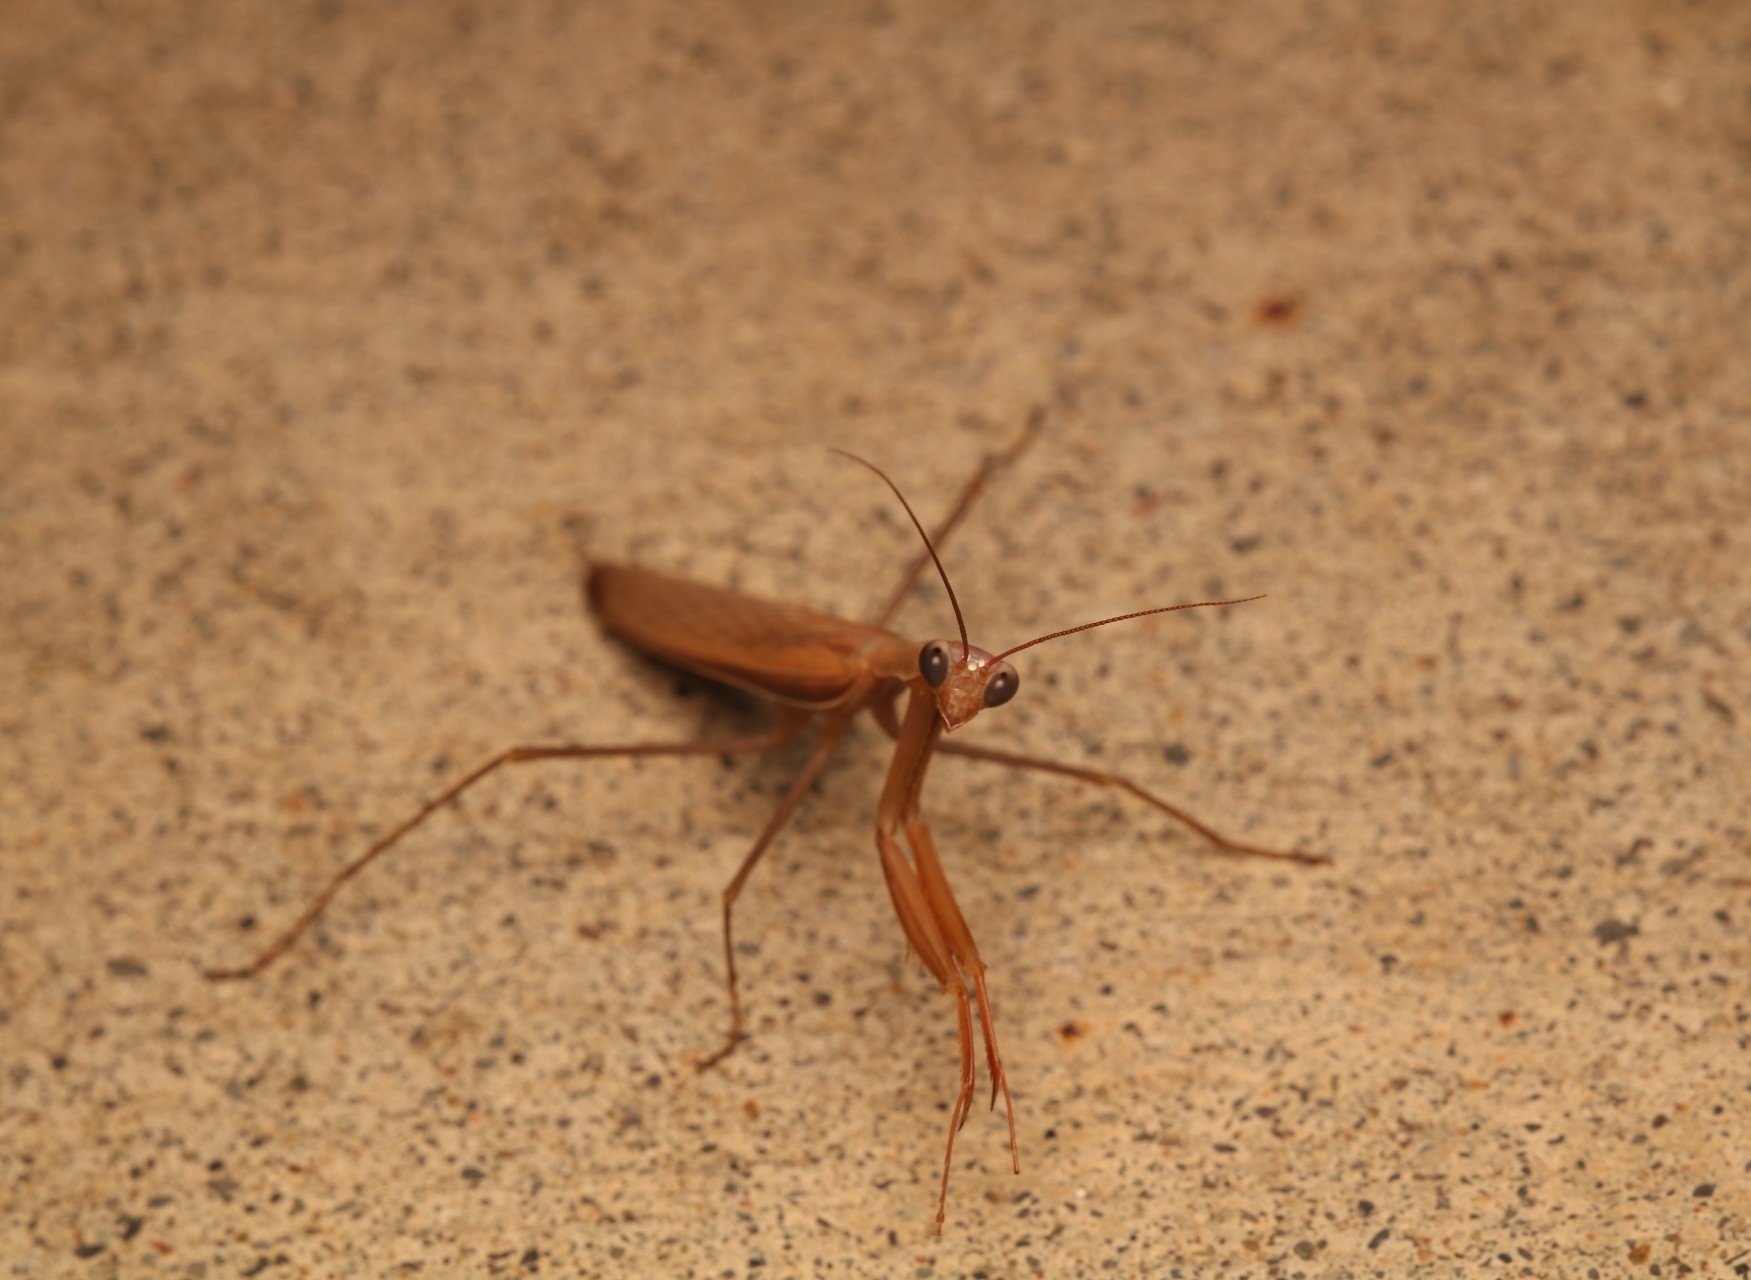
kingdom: Animalia
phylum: Arthropoda
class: Insecta
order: Mantodea
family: Mantidae
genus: Mantis
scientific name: Mantis religiosa
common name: Praying mantis
